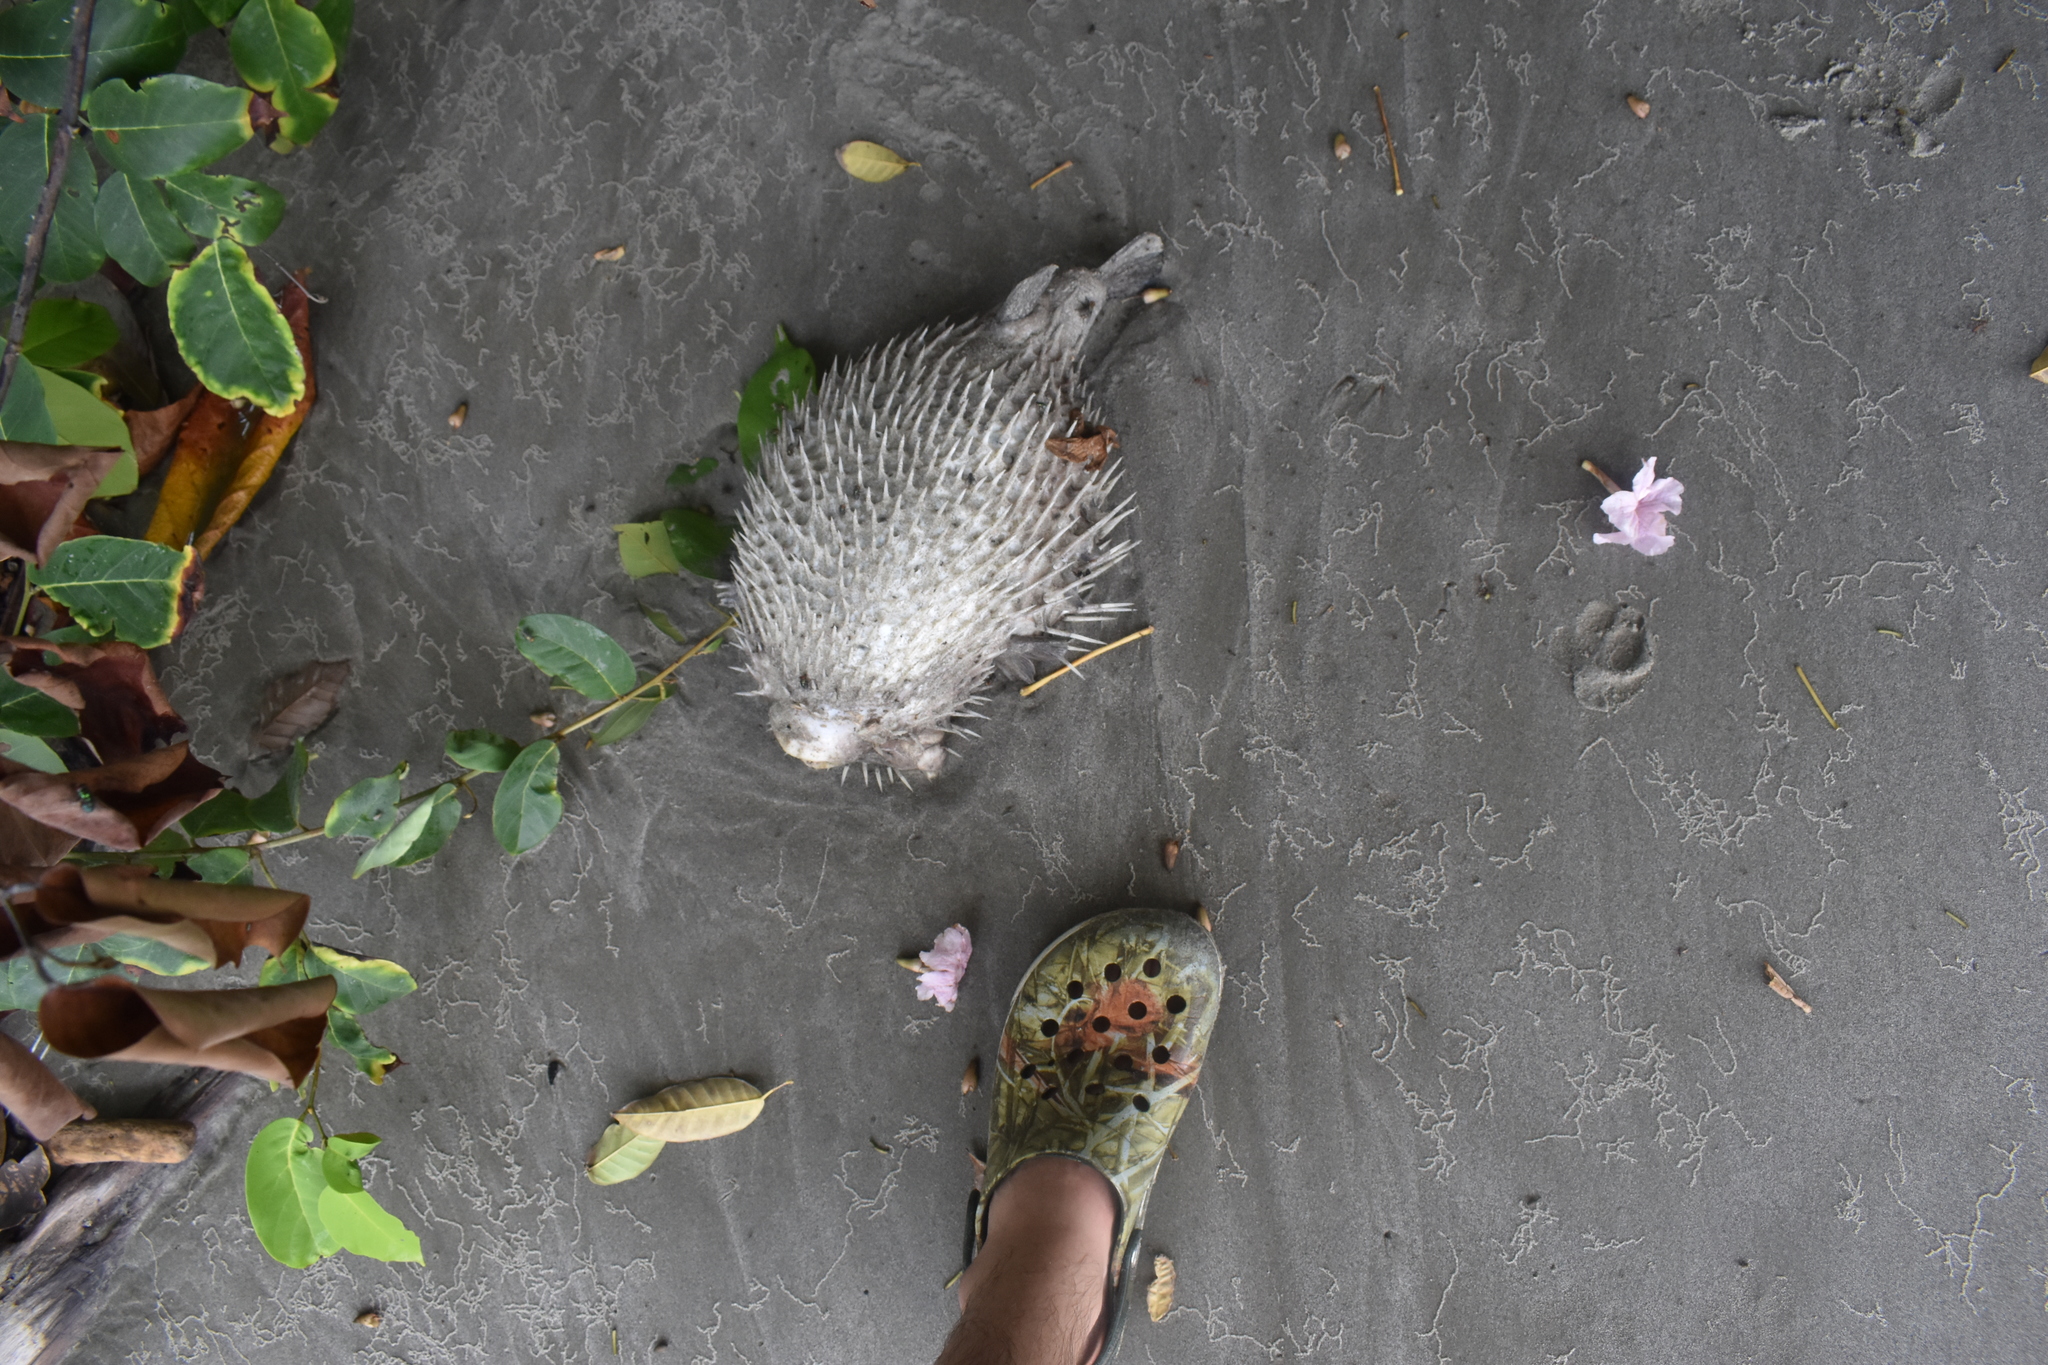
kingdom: Animalia
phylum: Chordata
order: Tetraodontiformes
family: Diodontidae
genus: Diodon
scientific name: Diodon holocanthus
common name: Balloonfish
